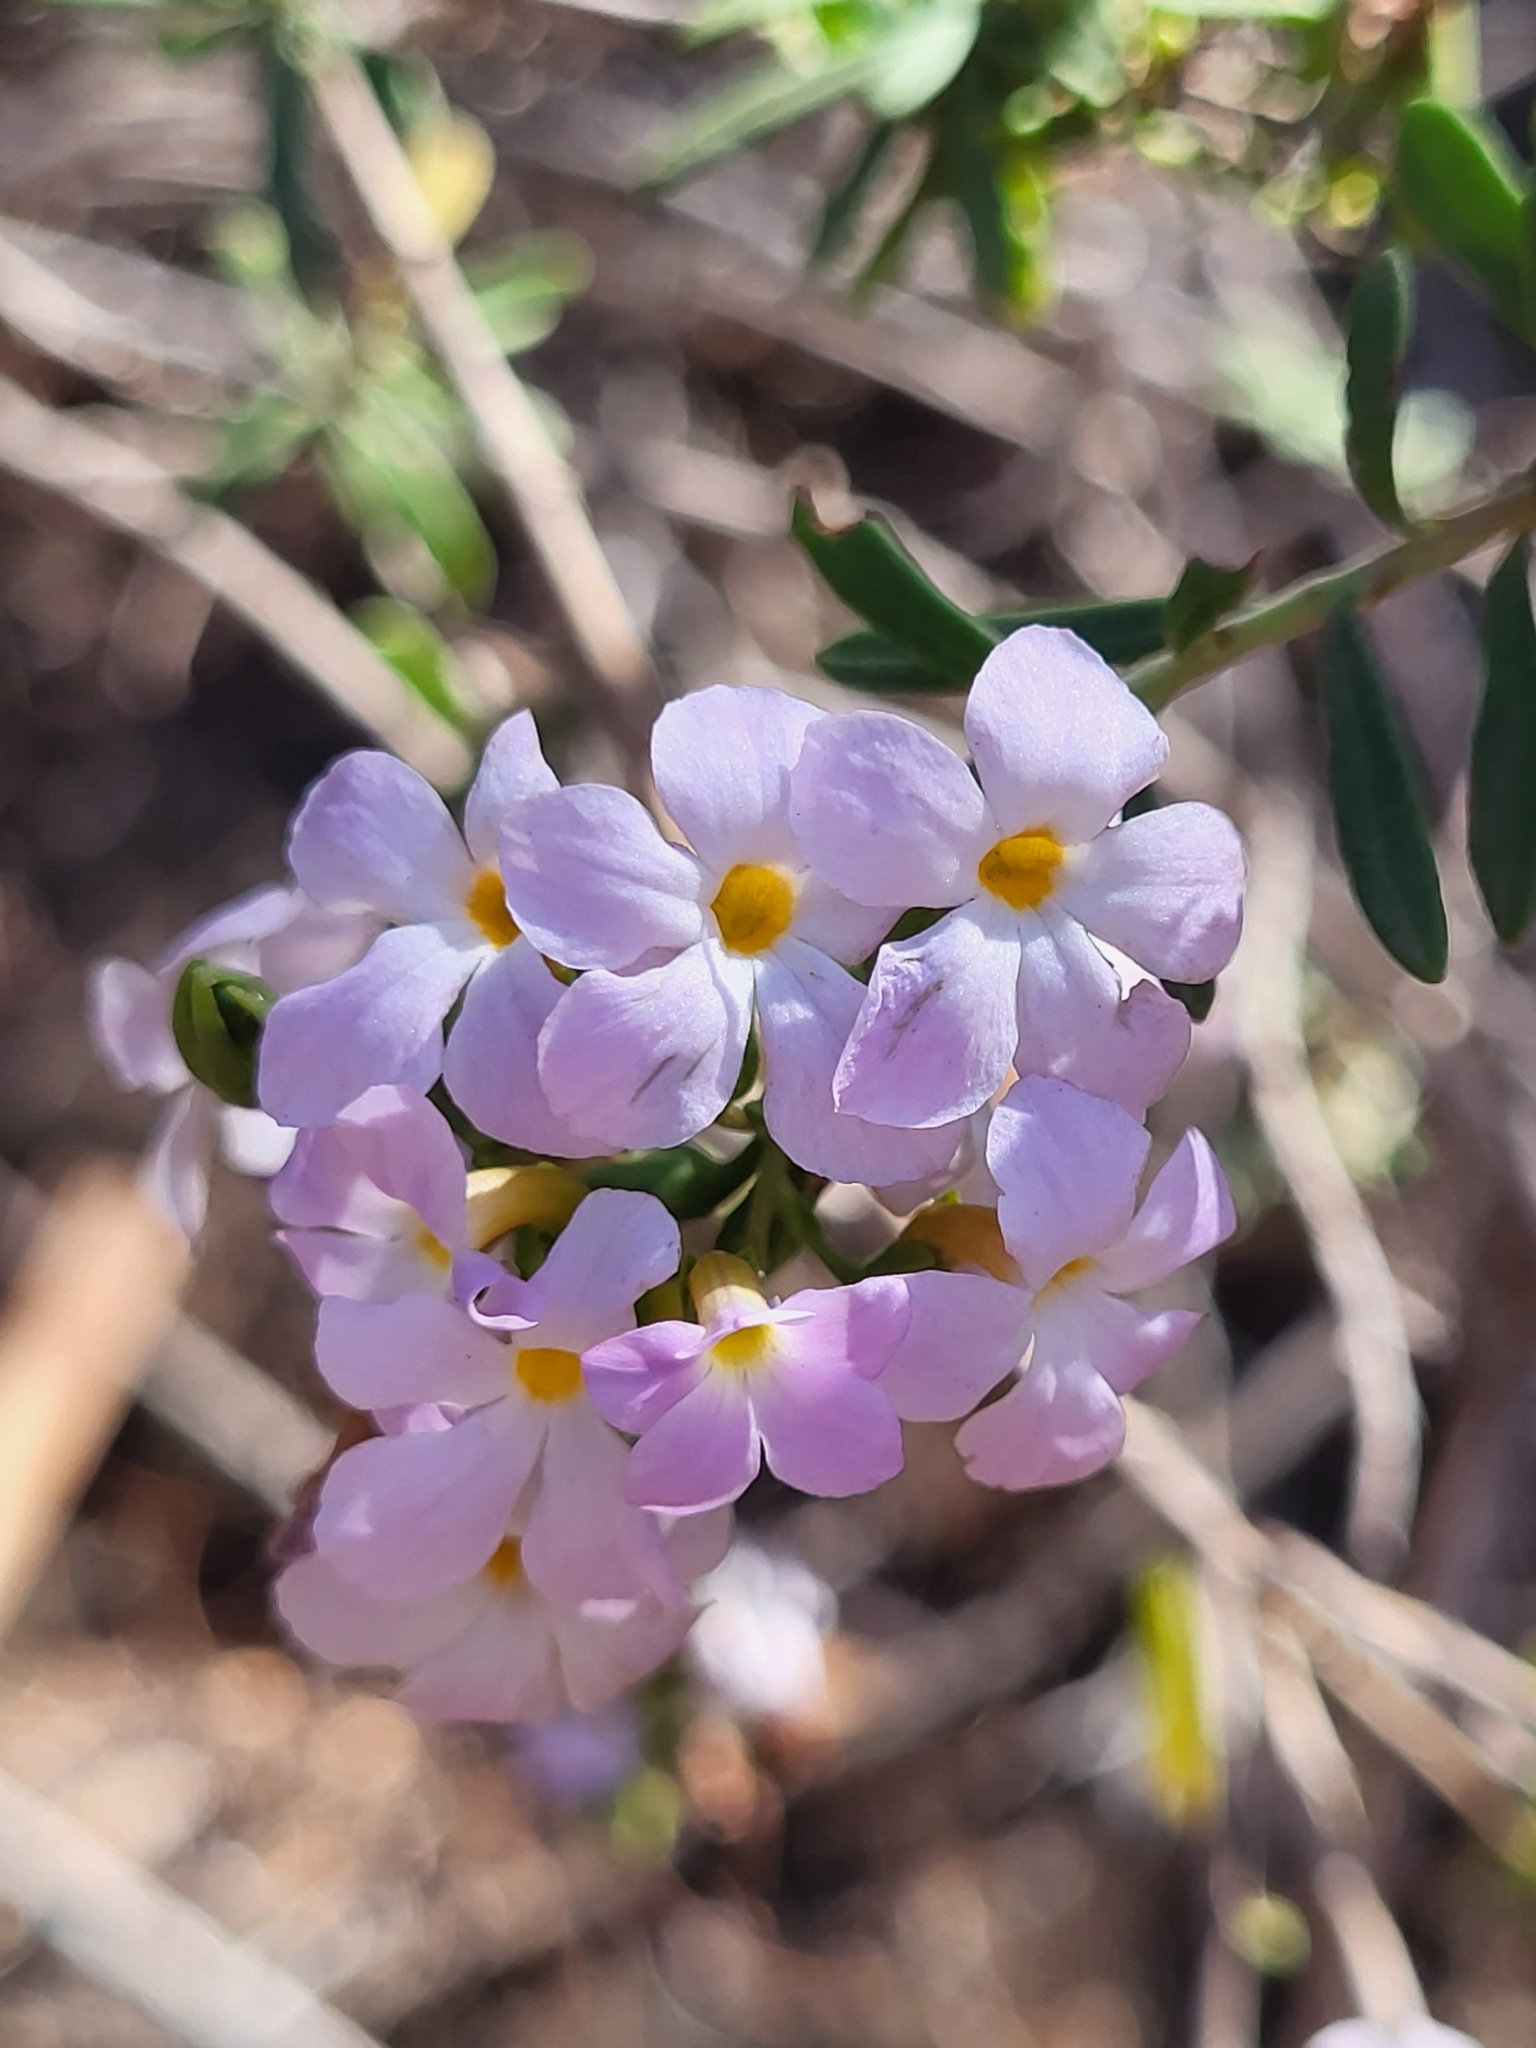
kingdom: Plantae
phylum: Tracheophyta
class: Magnoliopsida
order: Lamiales
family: Plantaginaceae
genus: Campylanthus
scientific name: Campylanthus glaber
